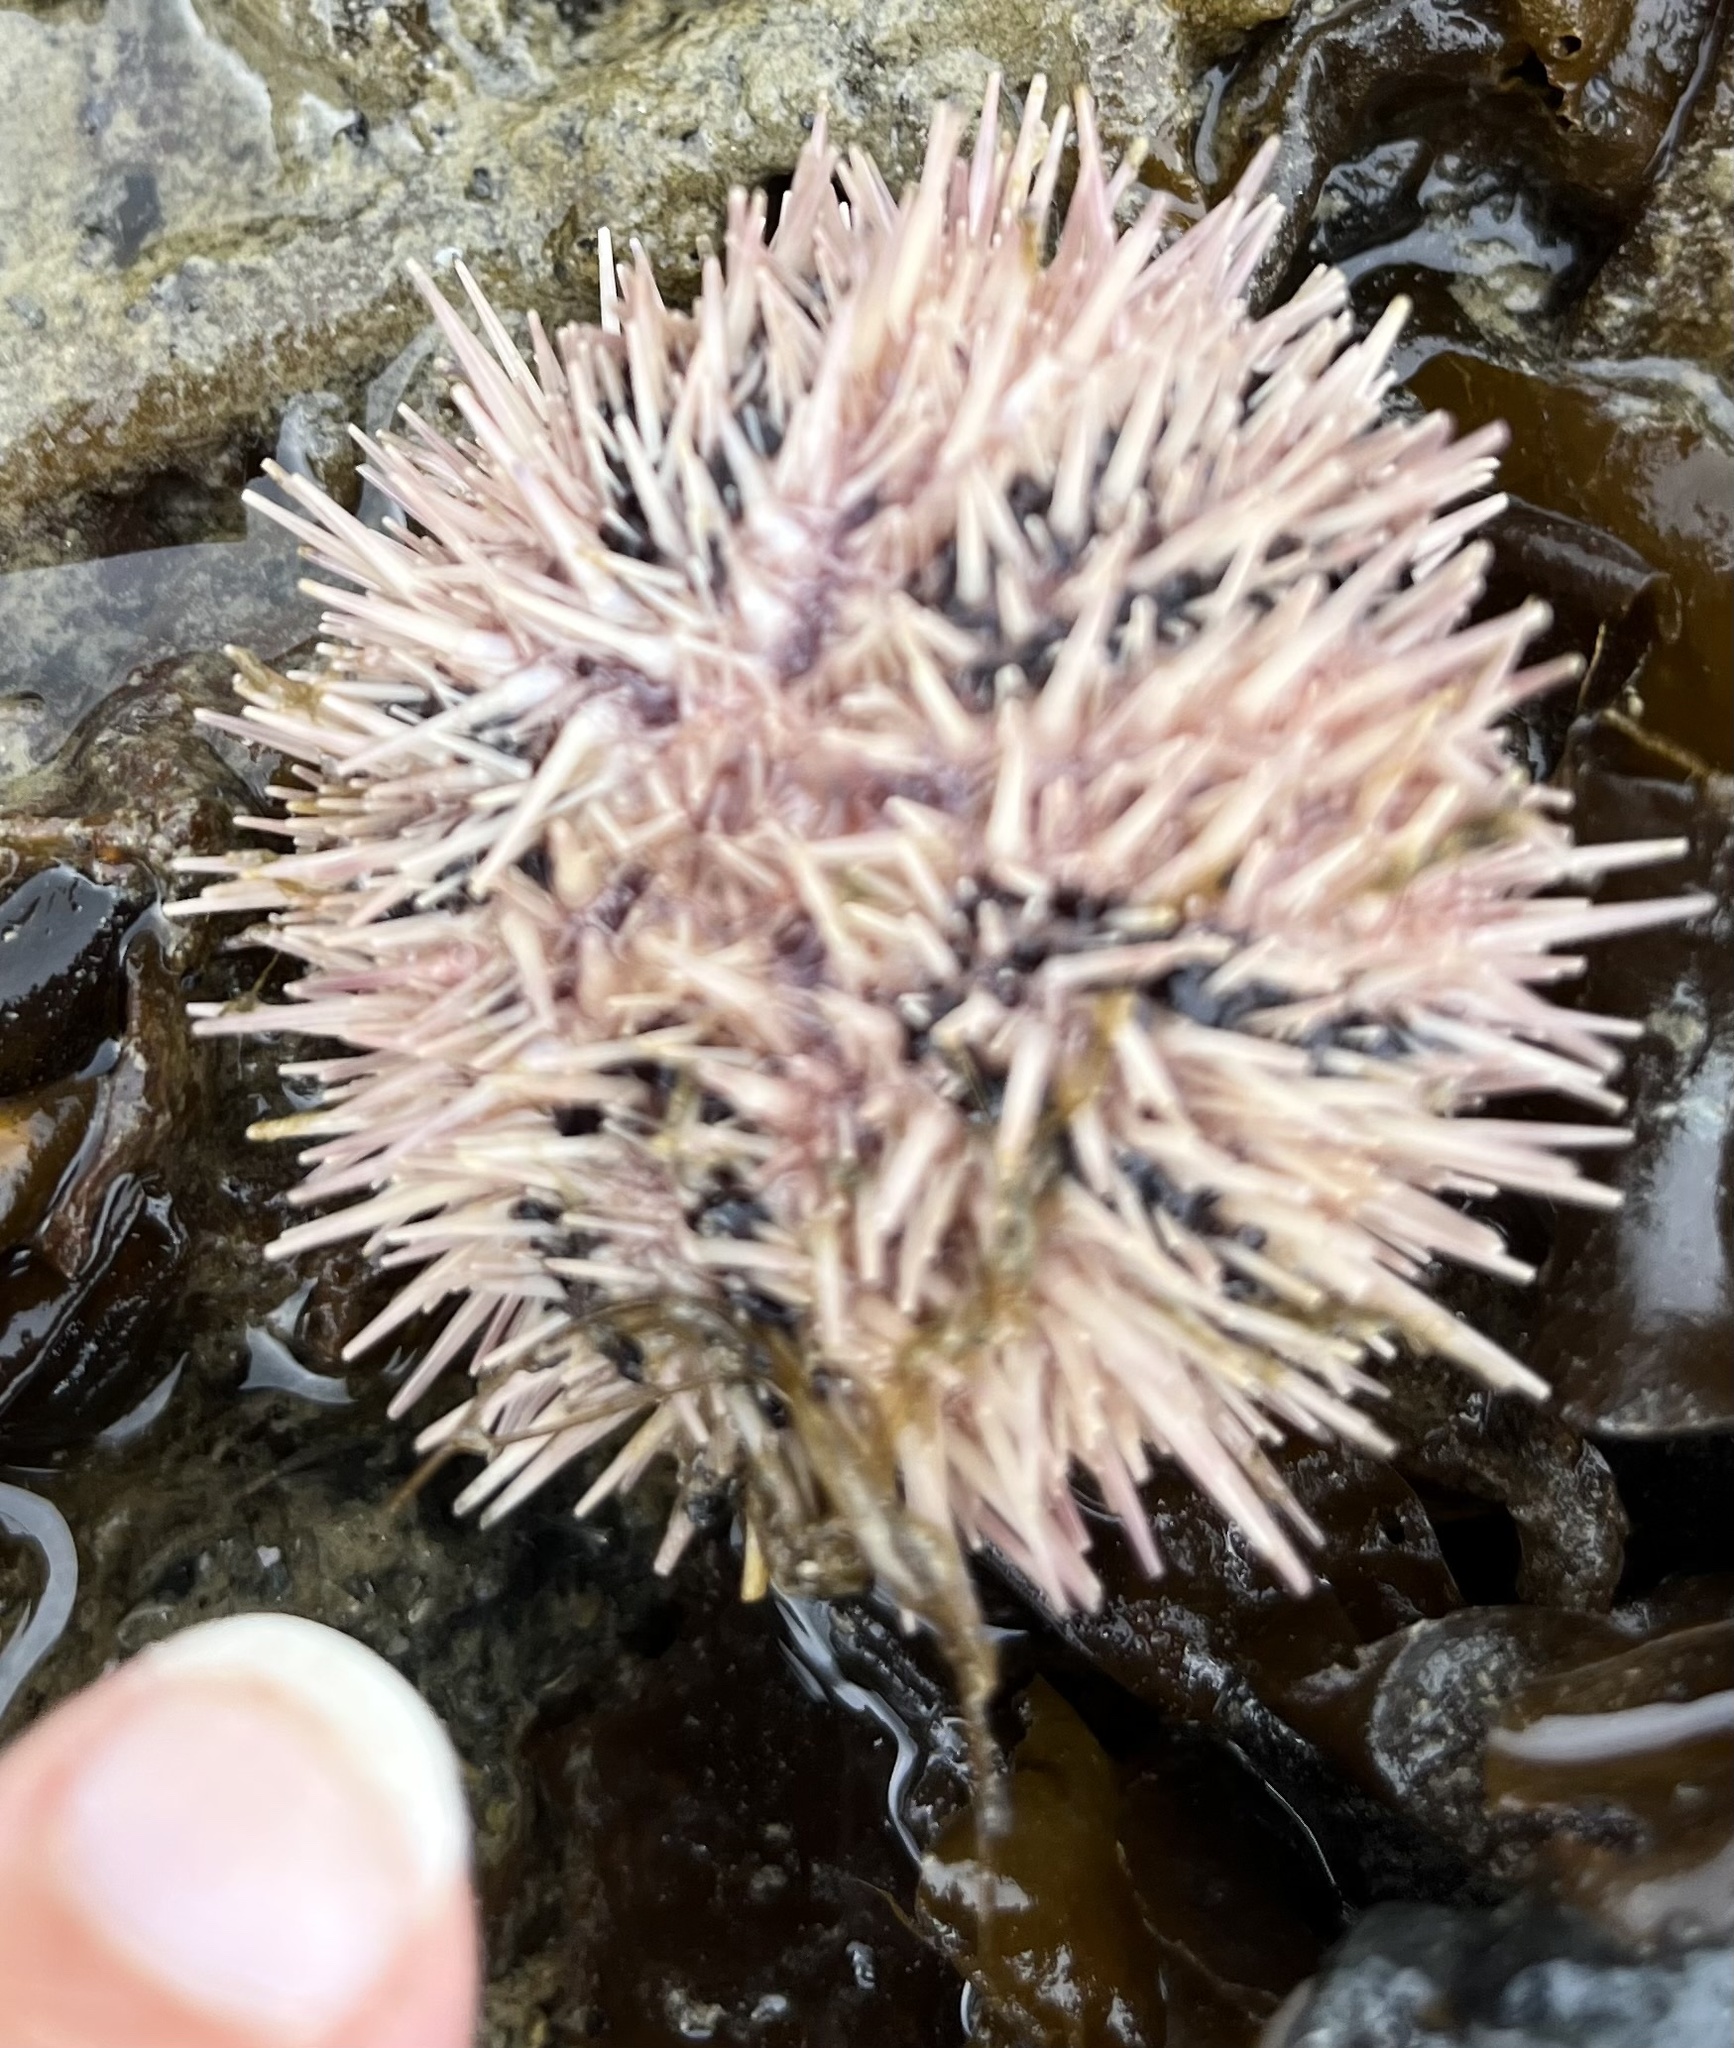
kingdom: Animalia
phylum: Echinodermata
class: Echinoidea
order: Camarodonta
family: Strongylocentrotidae
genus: Strongylocentrotus
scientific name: Strongylocentrotus purpuratus
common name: Purple sea urchin
